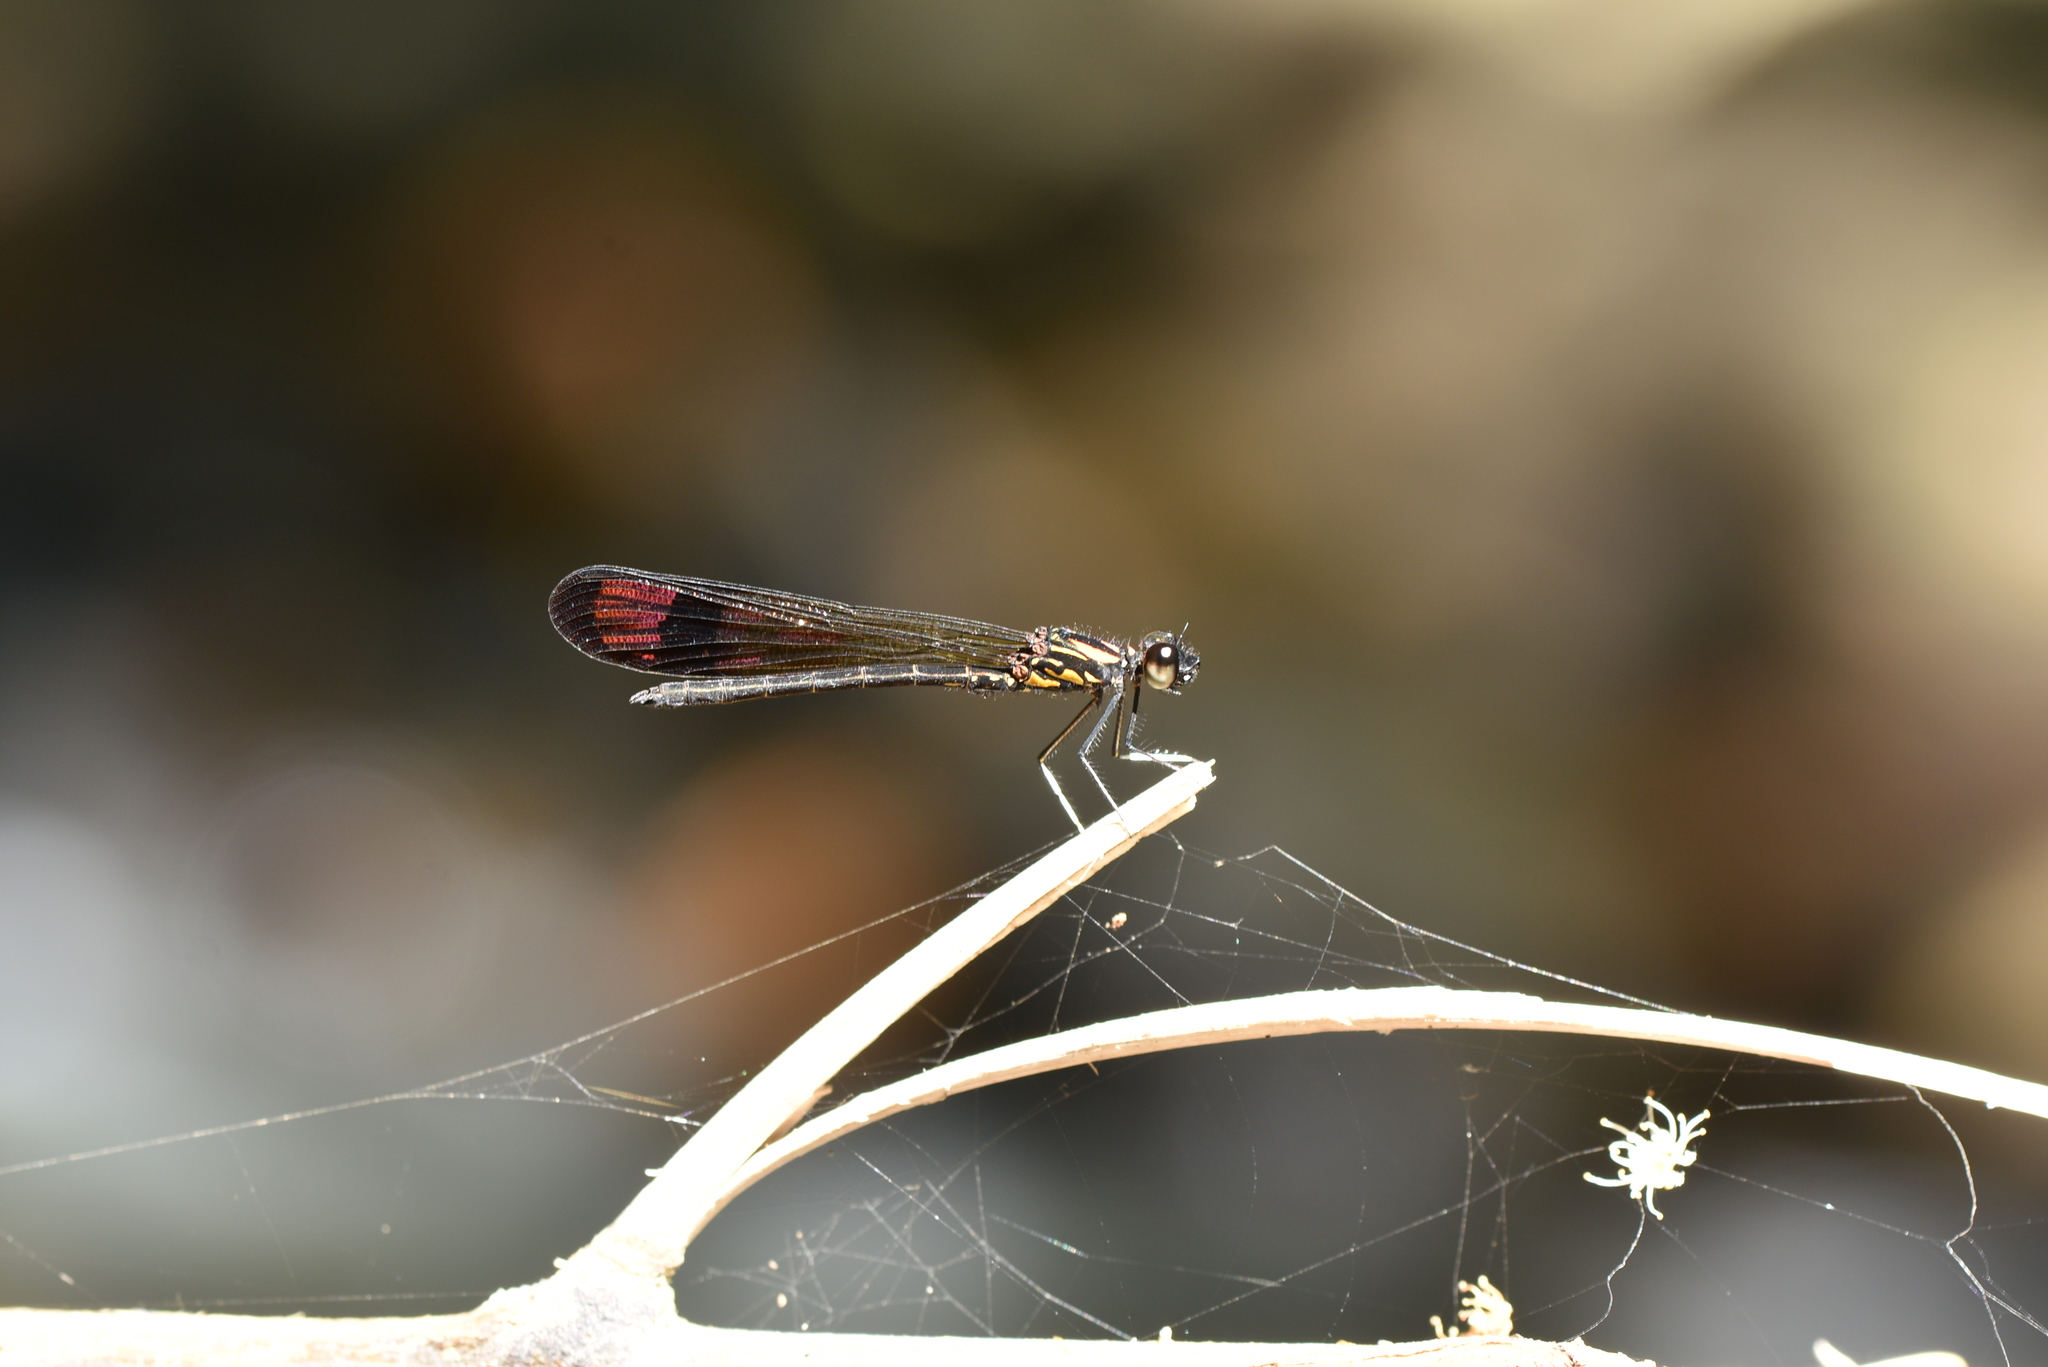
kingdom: Animalia
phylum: Arthropoda
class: Insecta
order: Odonata
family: Chlorocyphidae
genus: Heliocypha
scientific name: Heliocypha bisignata
